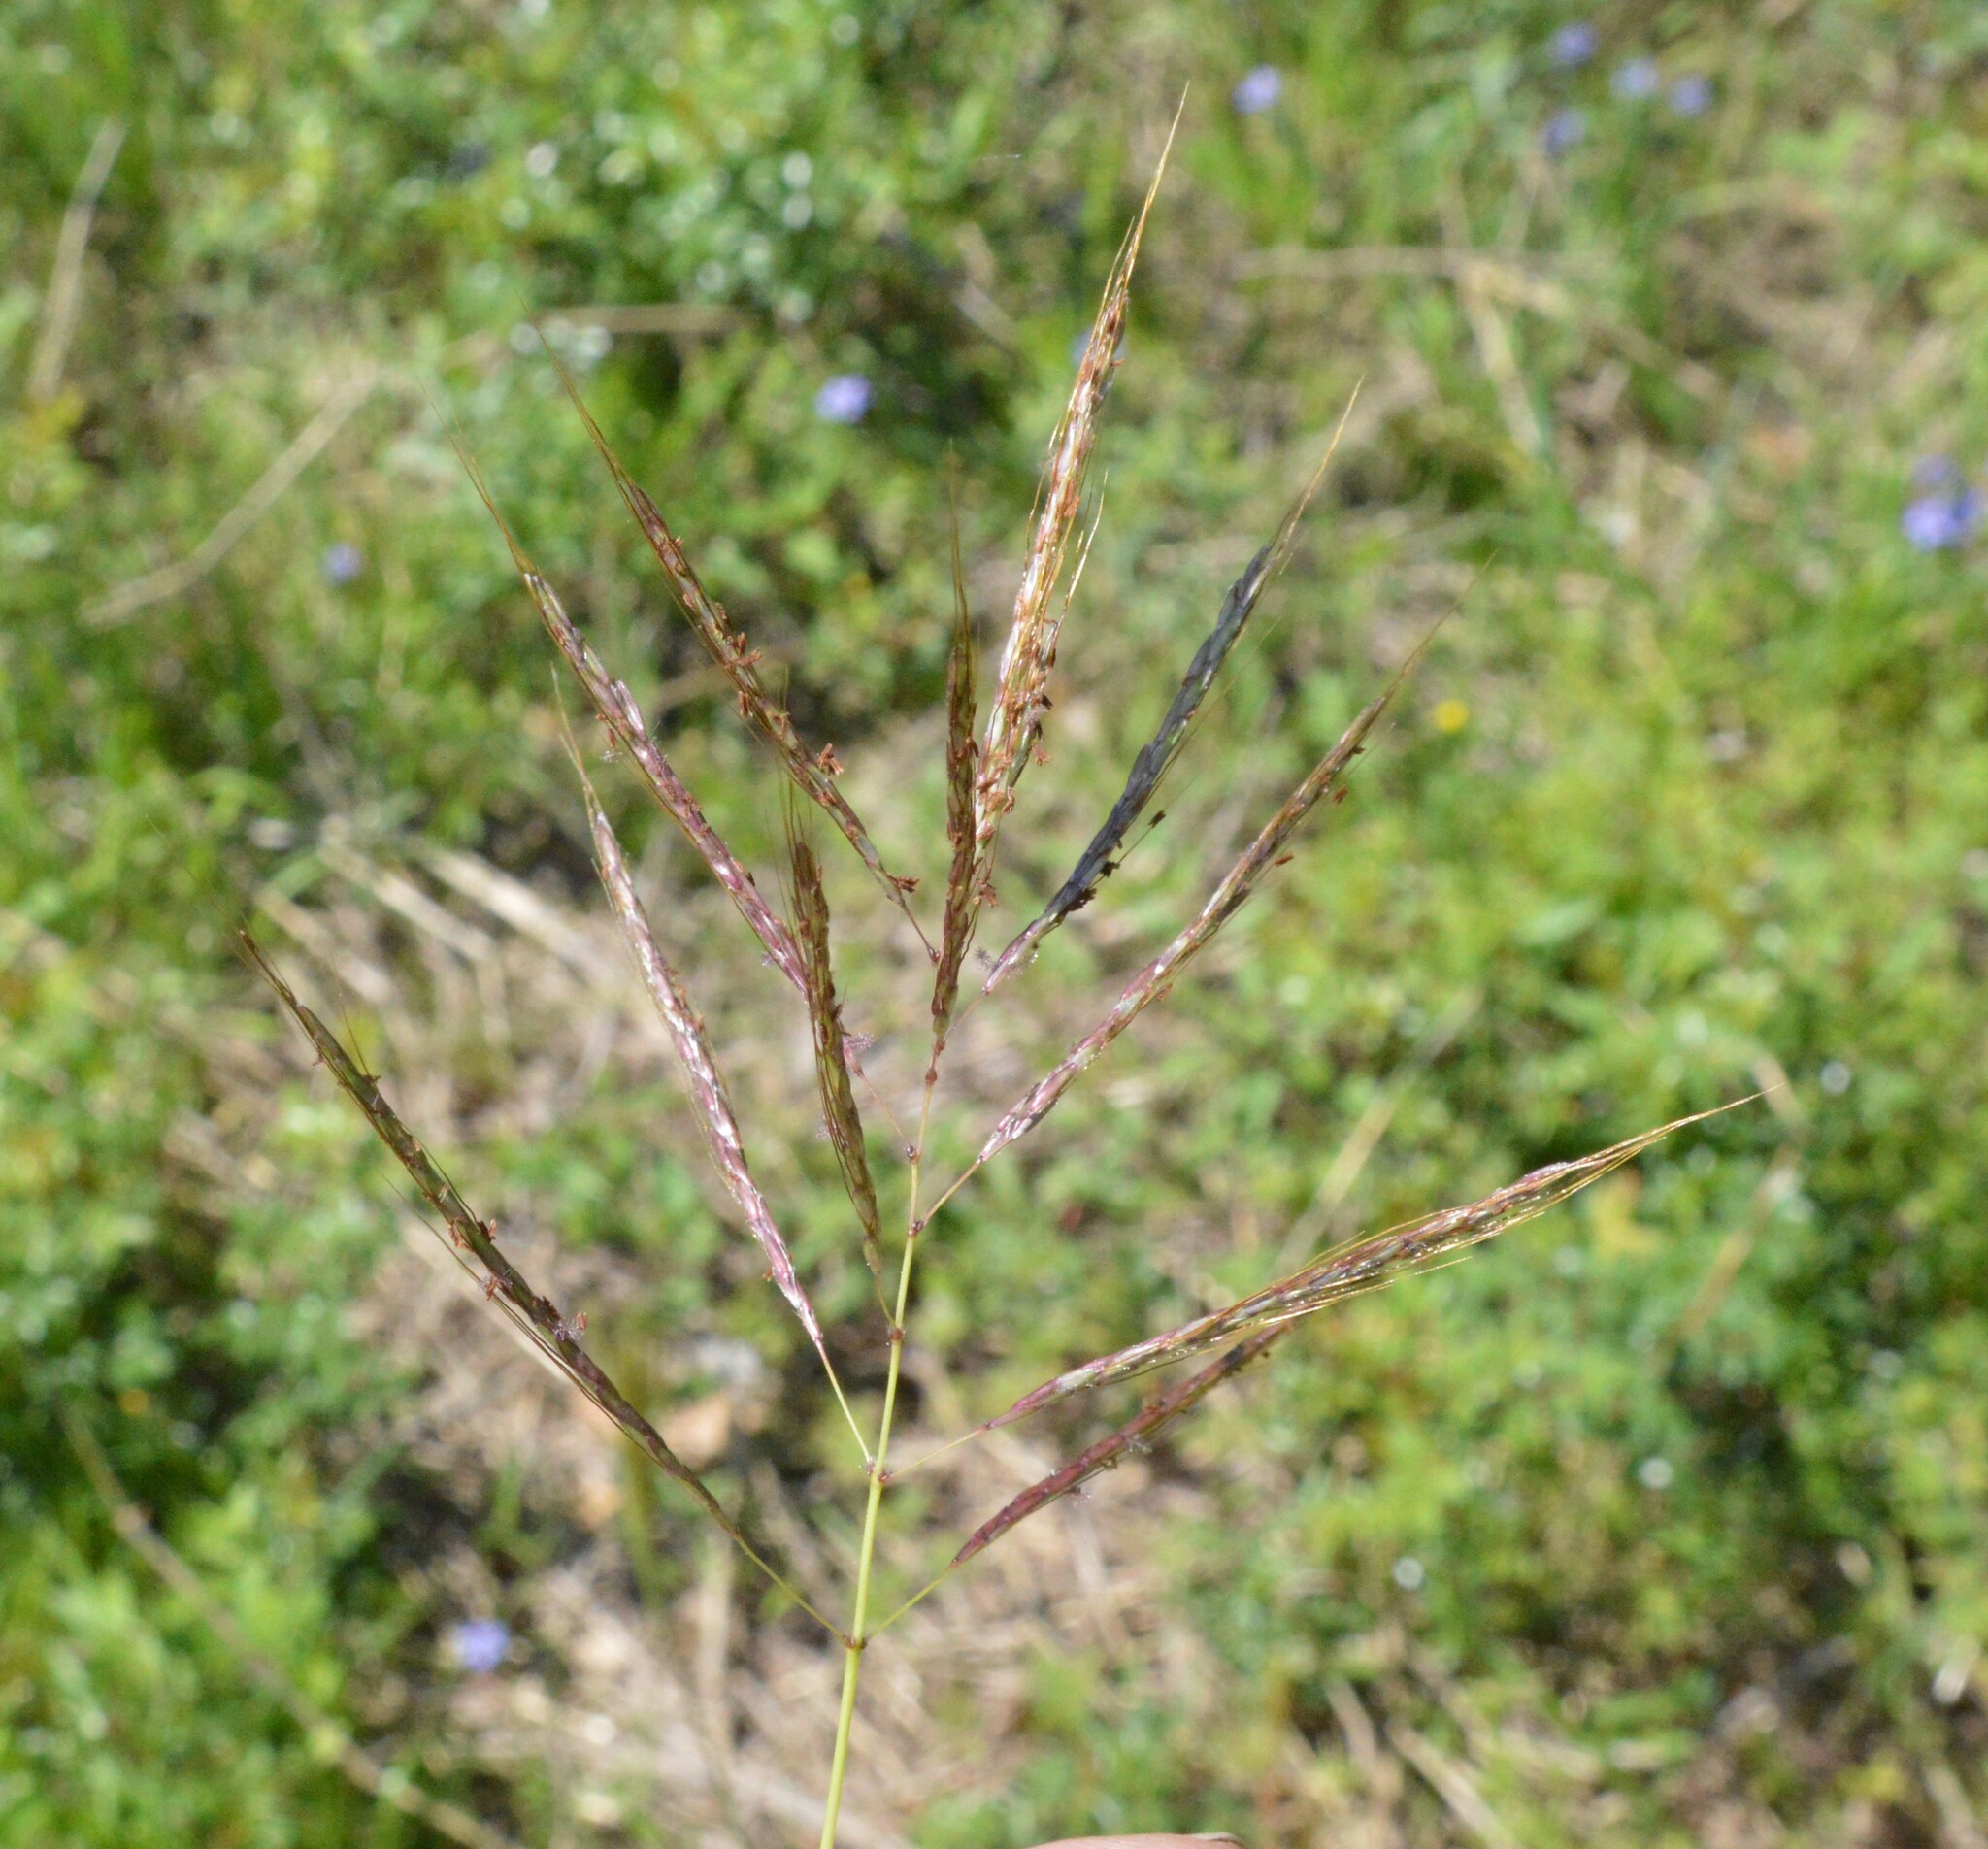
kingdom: Plantae
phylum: Tracheophyta
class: Liliopsida
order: Poales
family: Poaceae
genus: Bothriochloa
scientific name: Bothriochloa bladhii
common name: Caucasian bluestem
